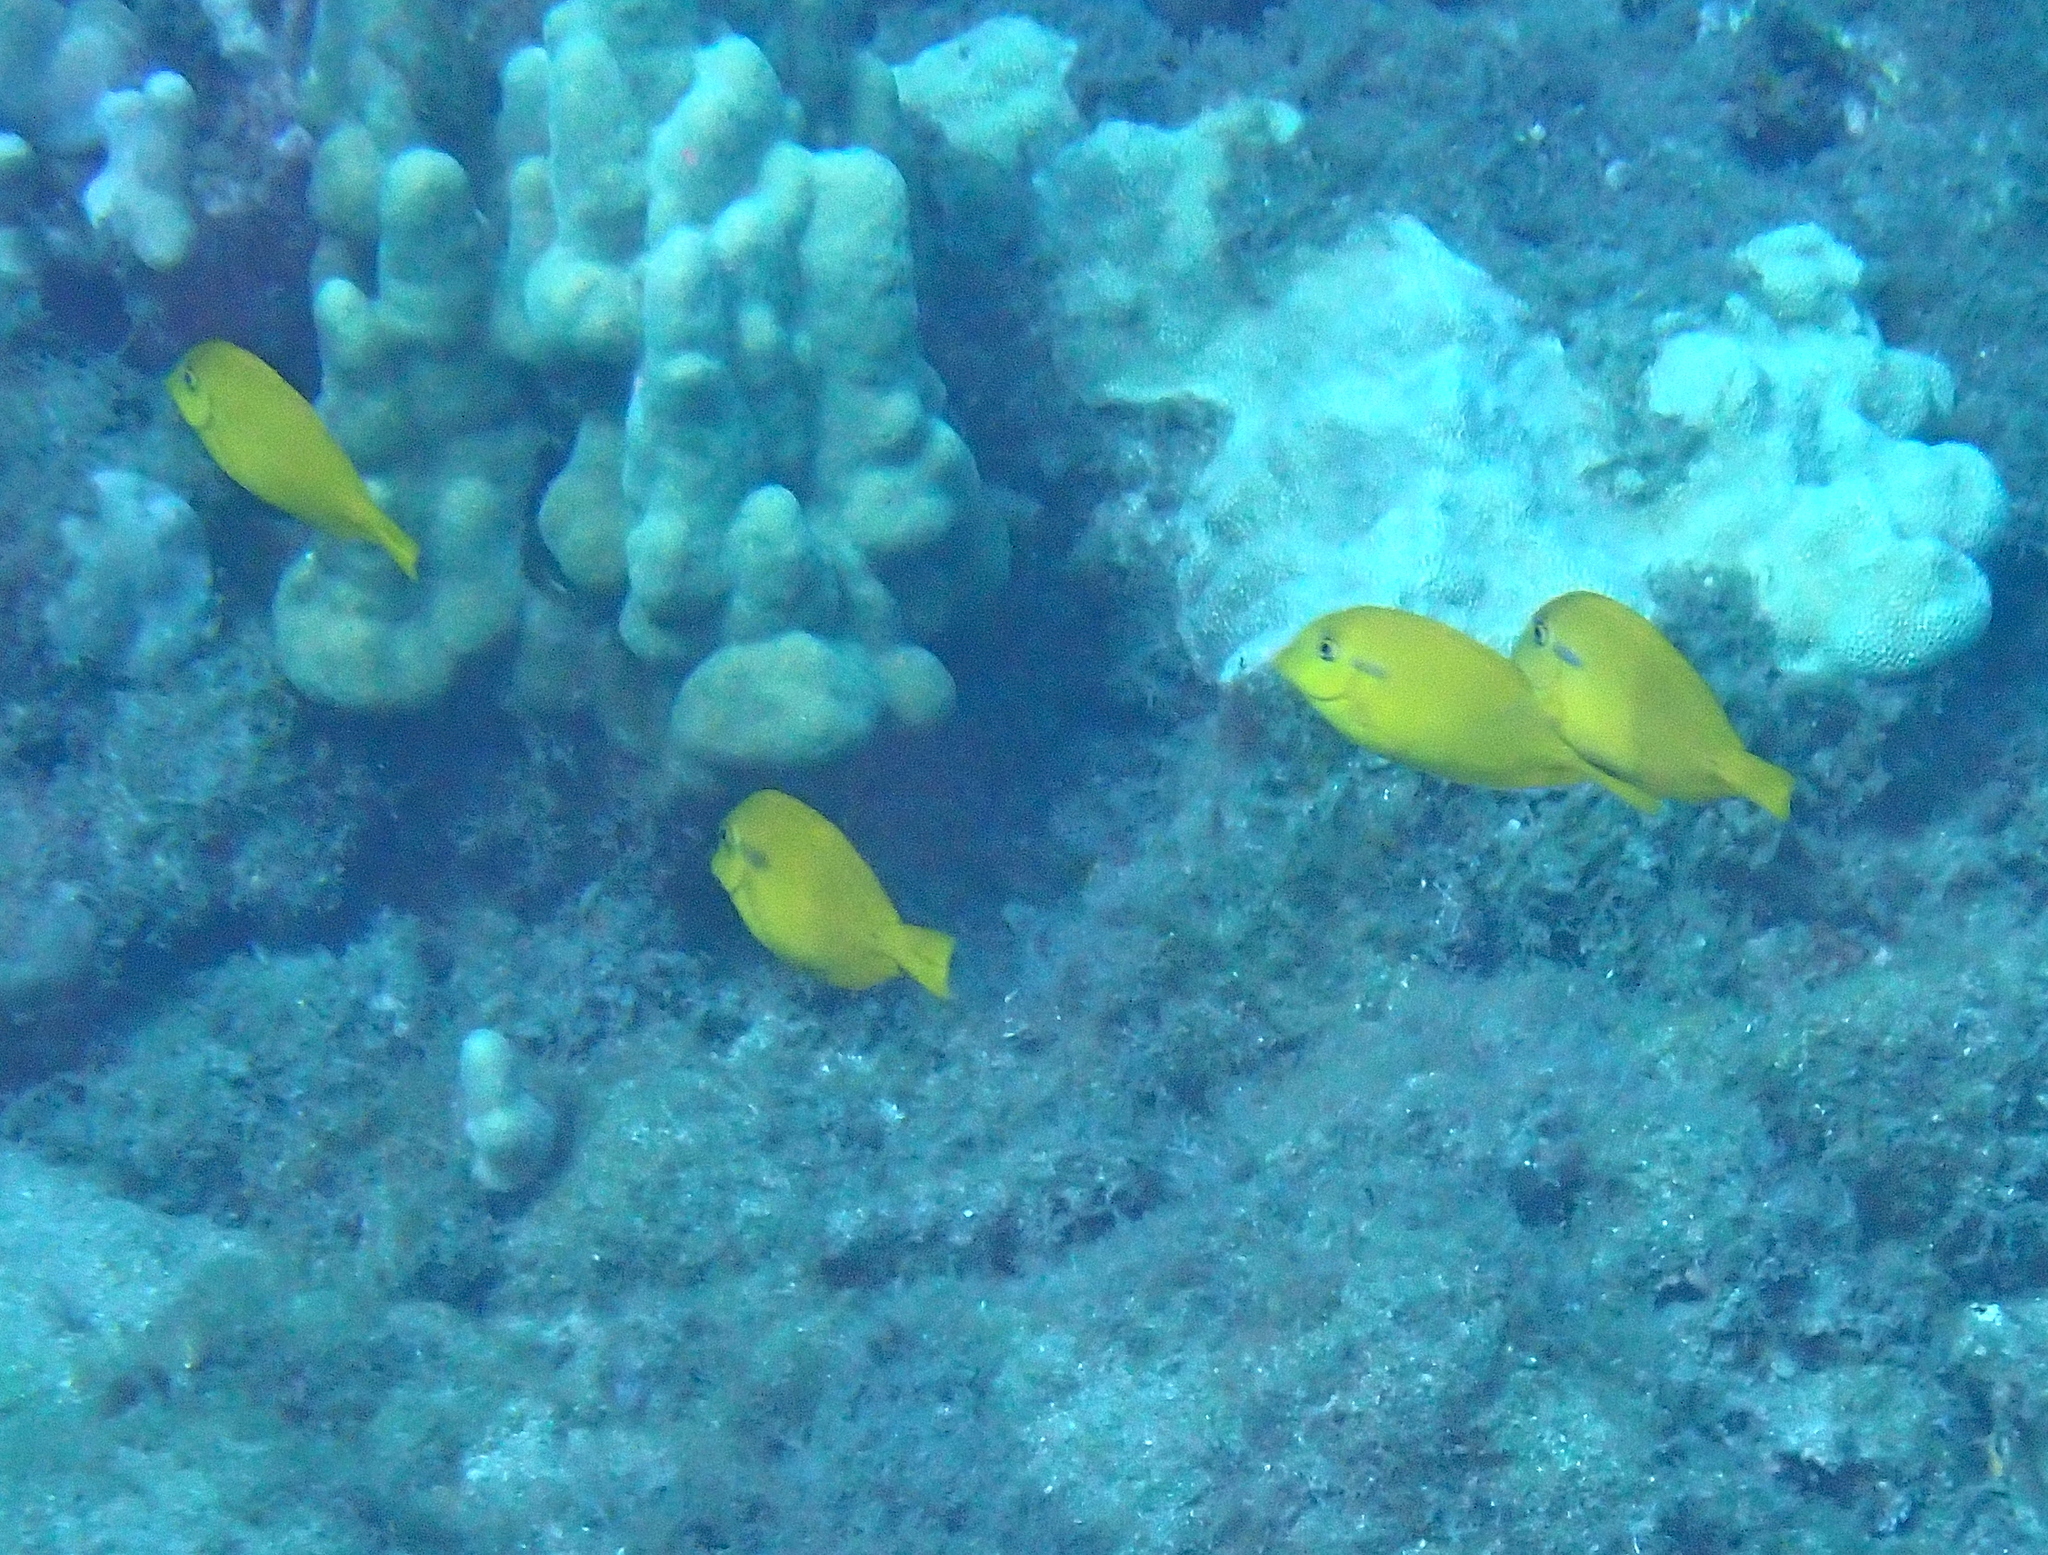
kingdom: Animalia
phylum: Chordata
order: Perciformes
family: Acanthuridae
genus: Acanthurus
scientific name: Acanthurus olivaceus
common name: Gendarme fish
